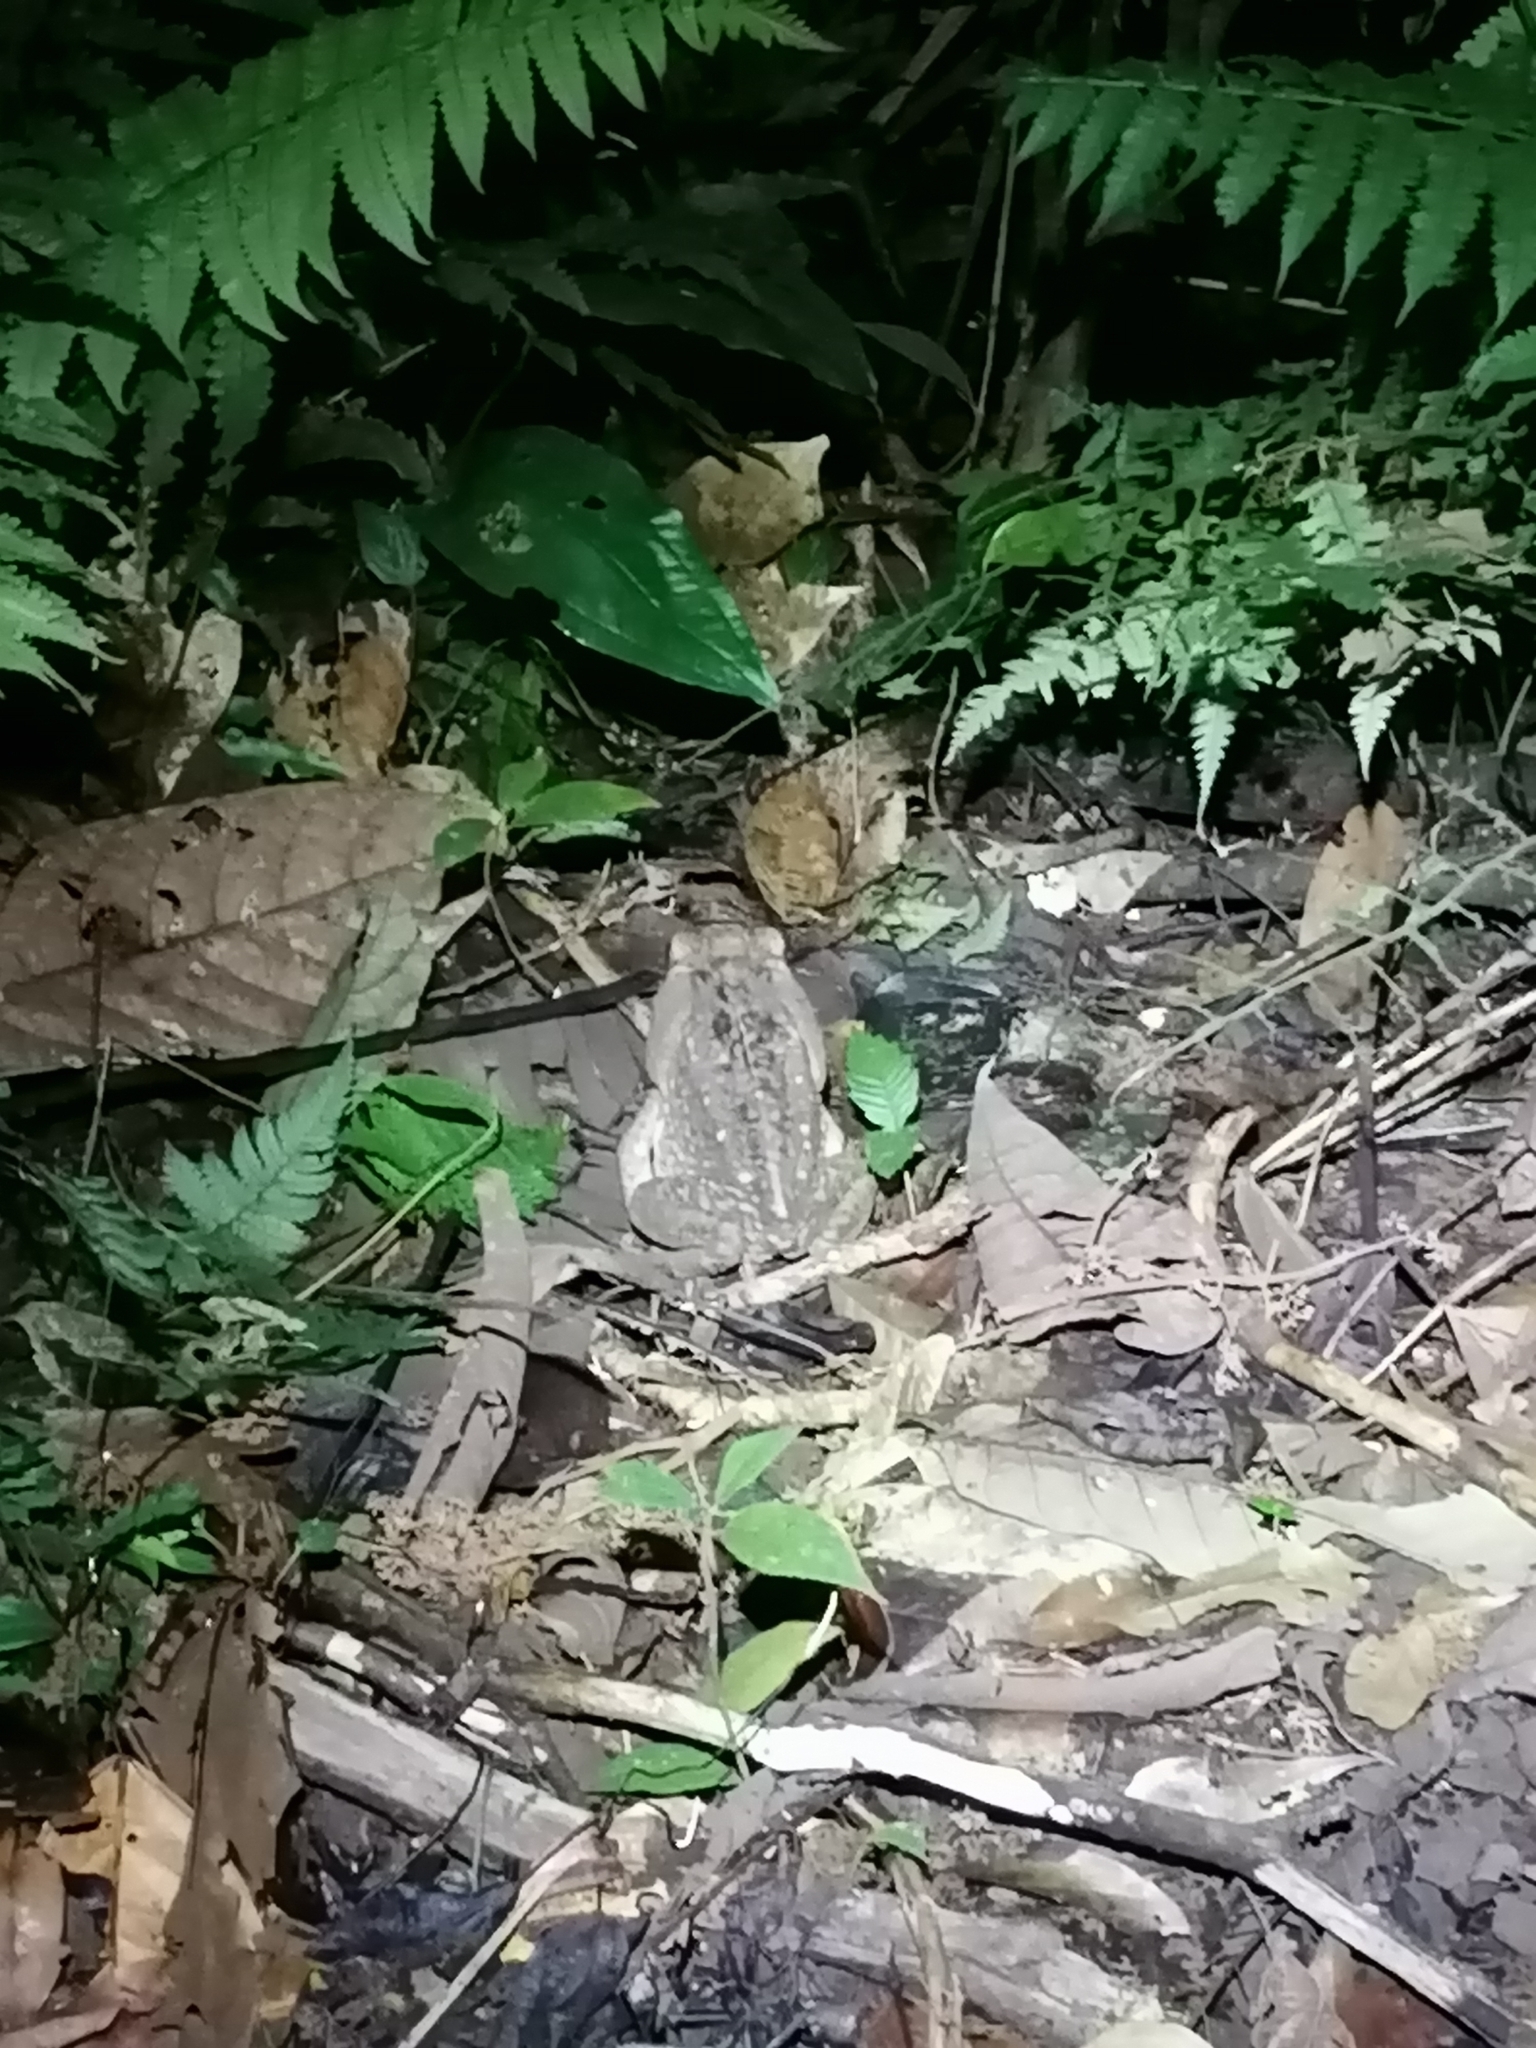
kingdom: Animalia
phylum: Chordata
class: Amphibia
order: Anura
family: Bufonidae
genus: Rhinella
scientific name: Rhinella horribilis
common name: Mesoamerican cane toad
